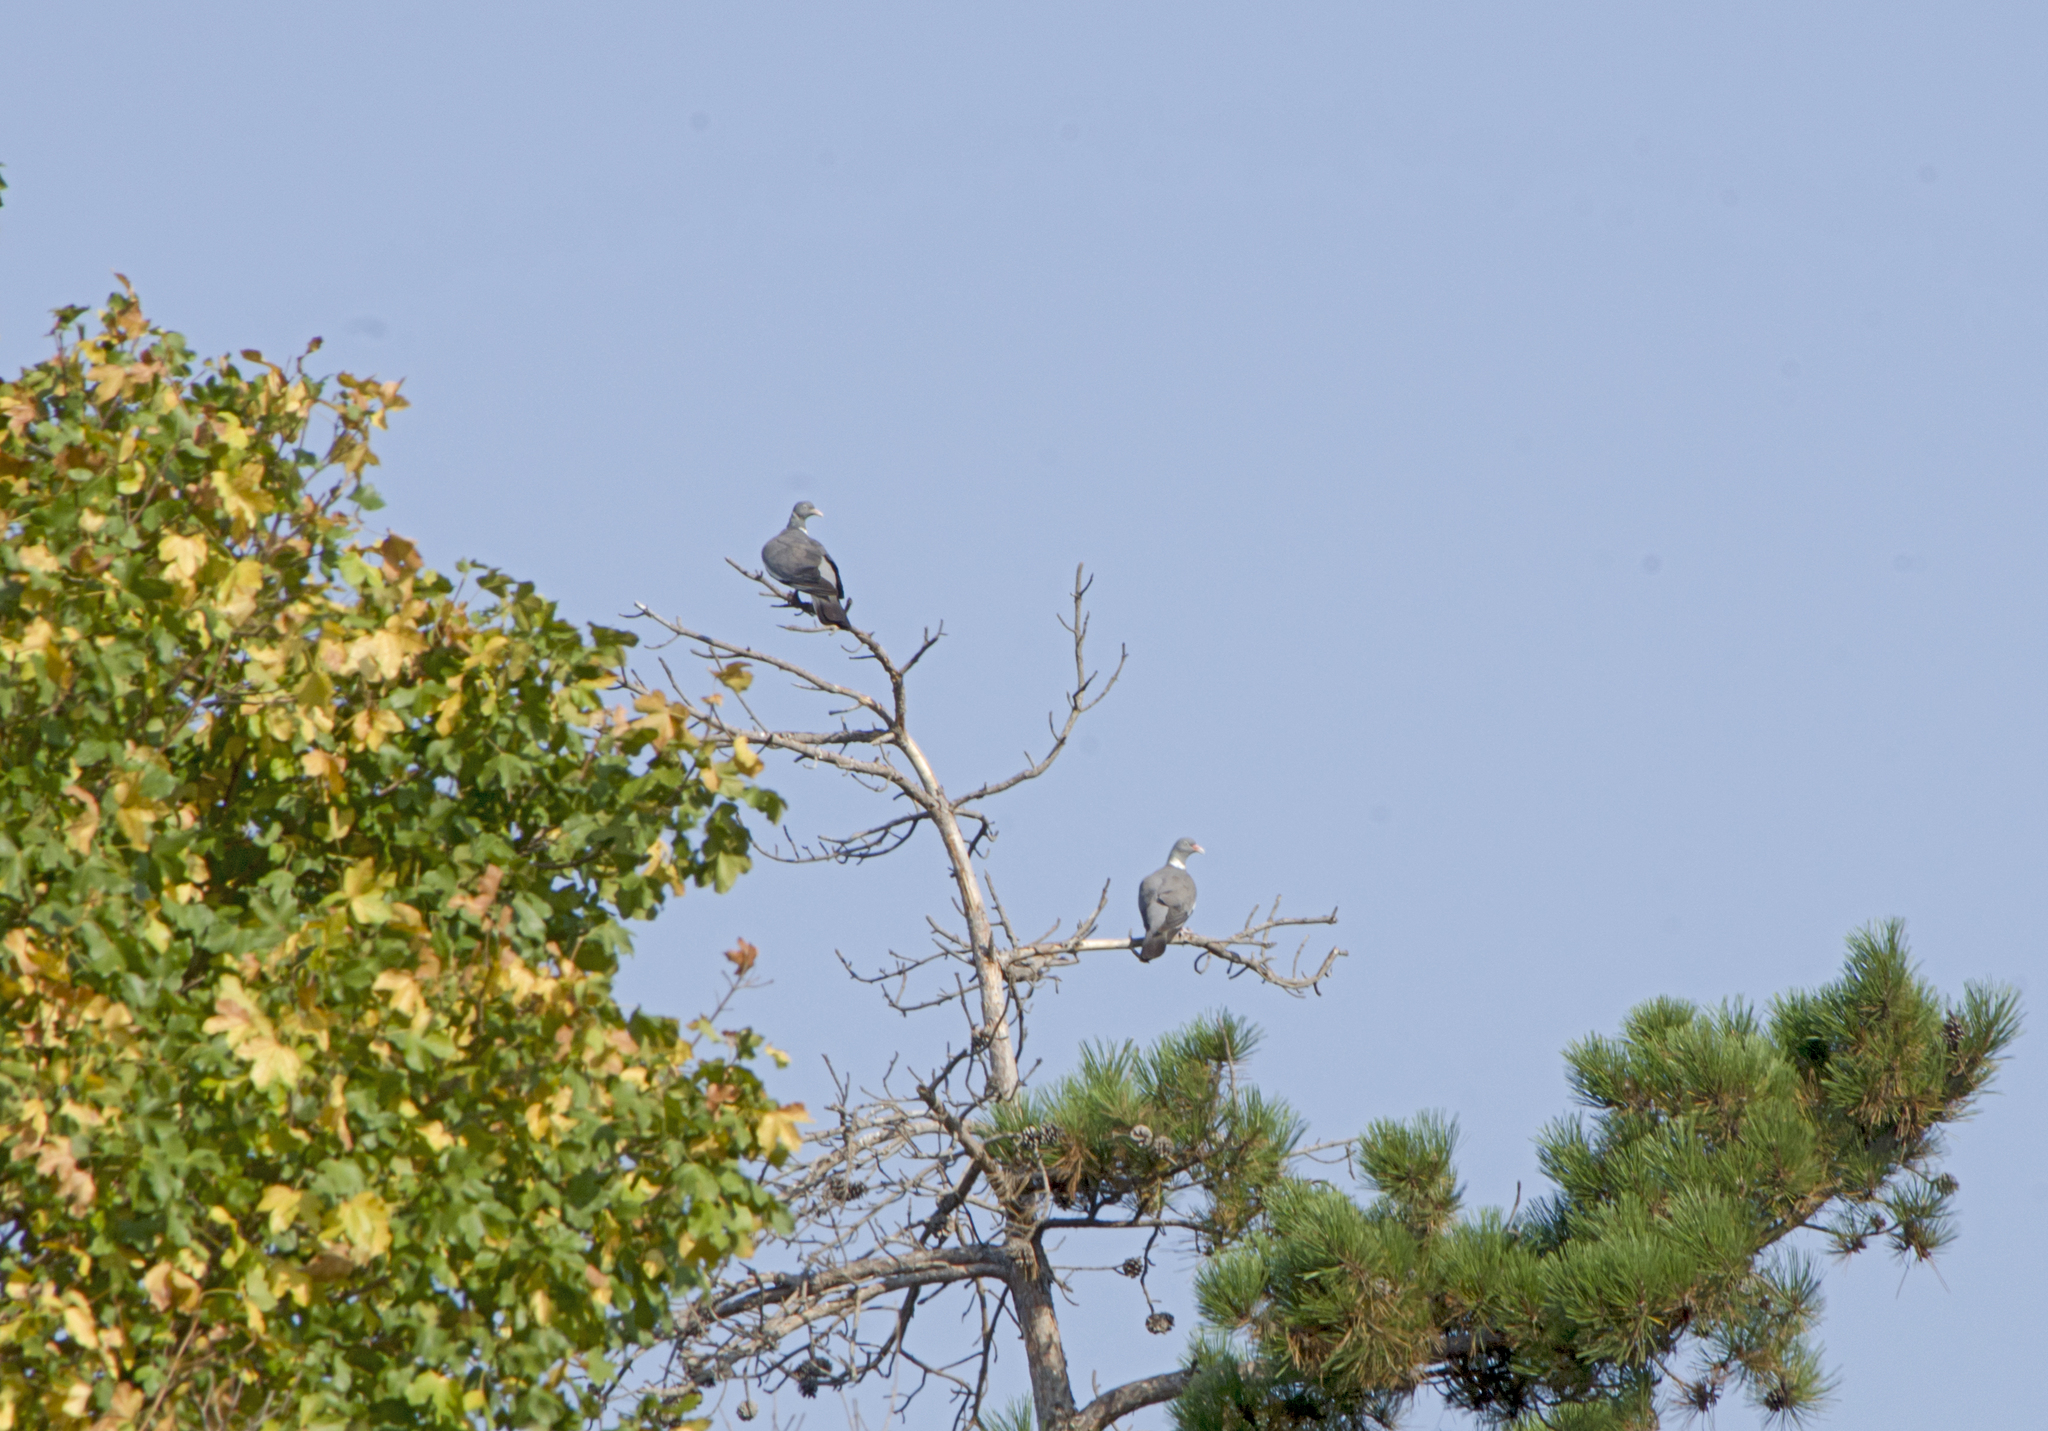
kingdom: Animalia
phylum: Chordata
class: Aves
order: Columbiformes
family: Columbidae
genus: Columba
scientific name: Columba palumbus
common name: Common wood pigeon
